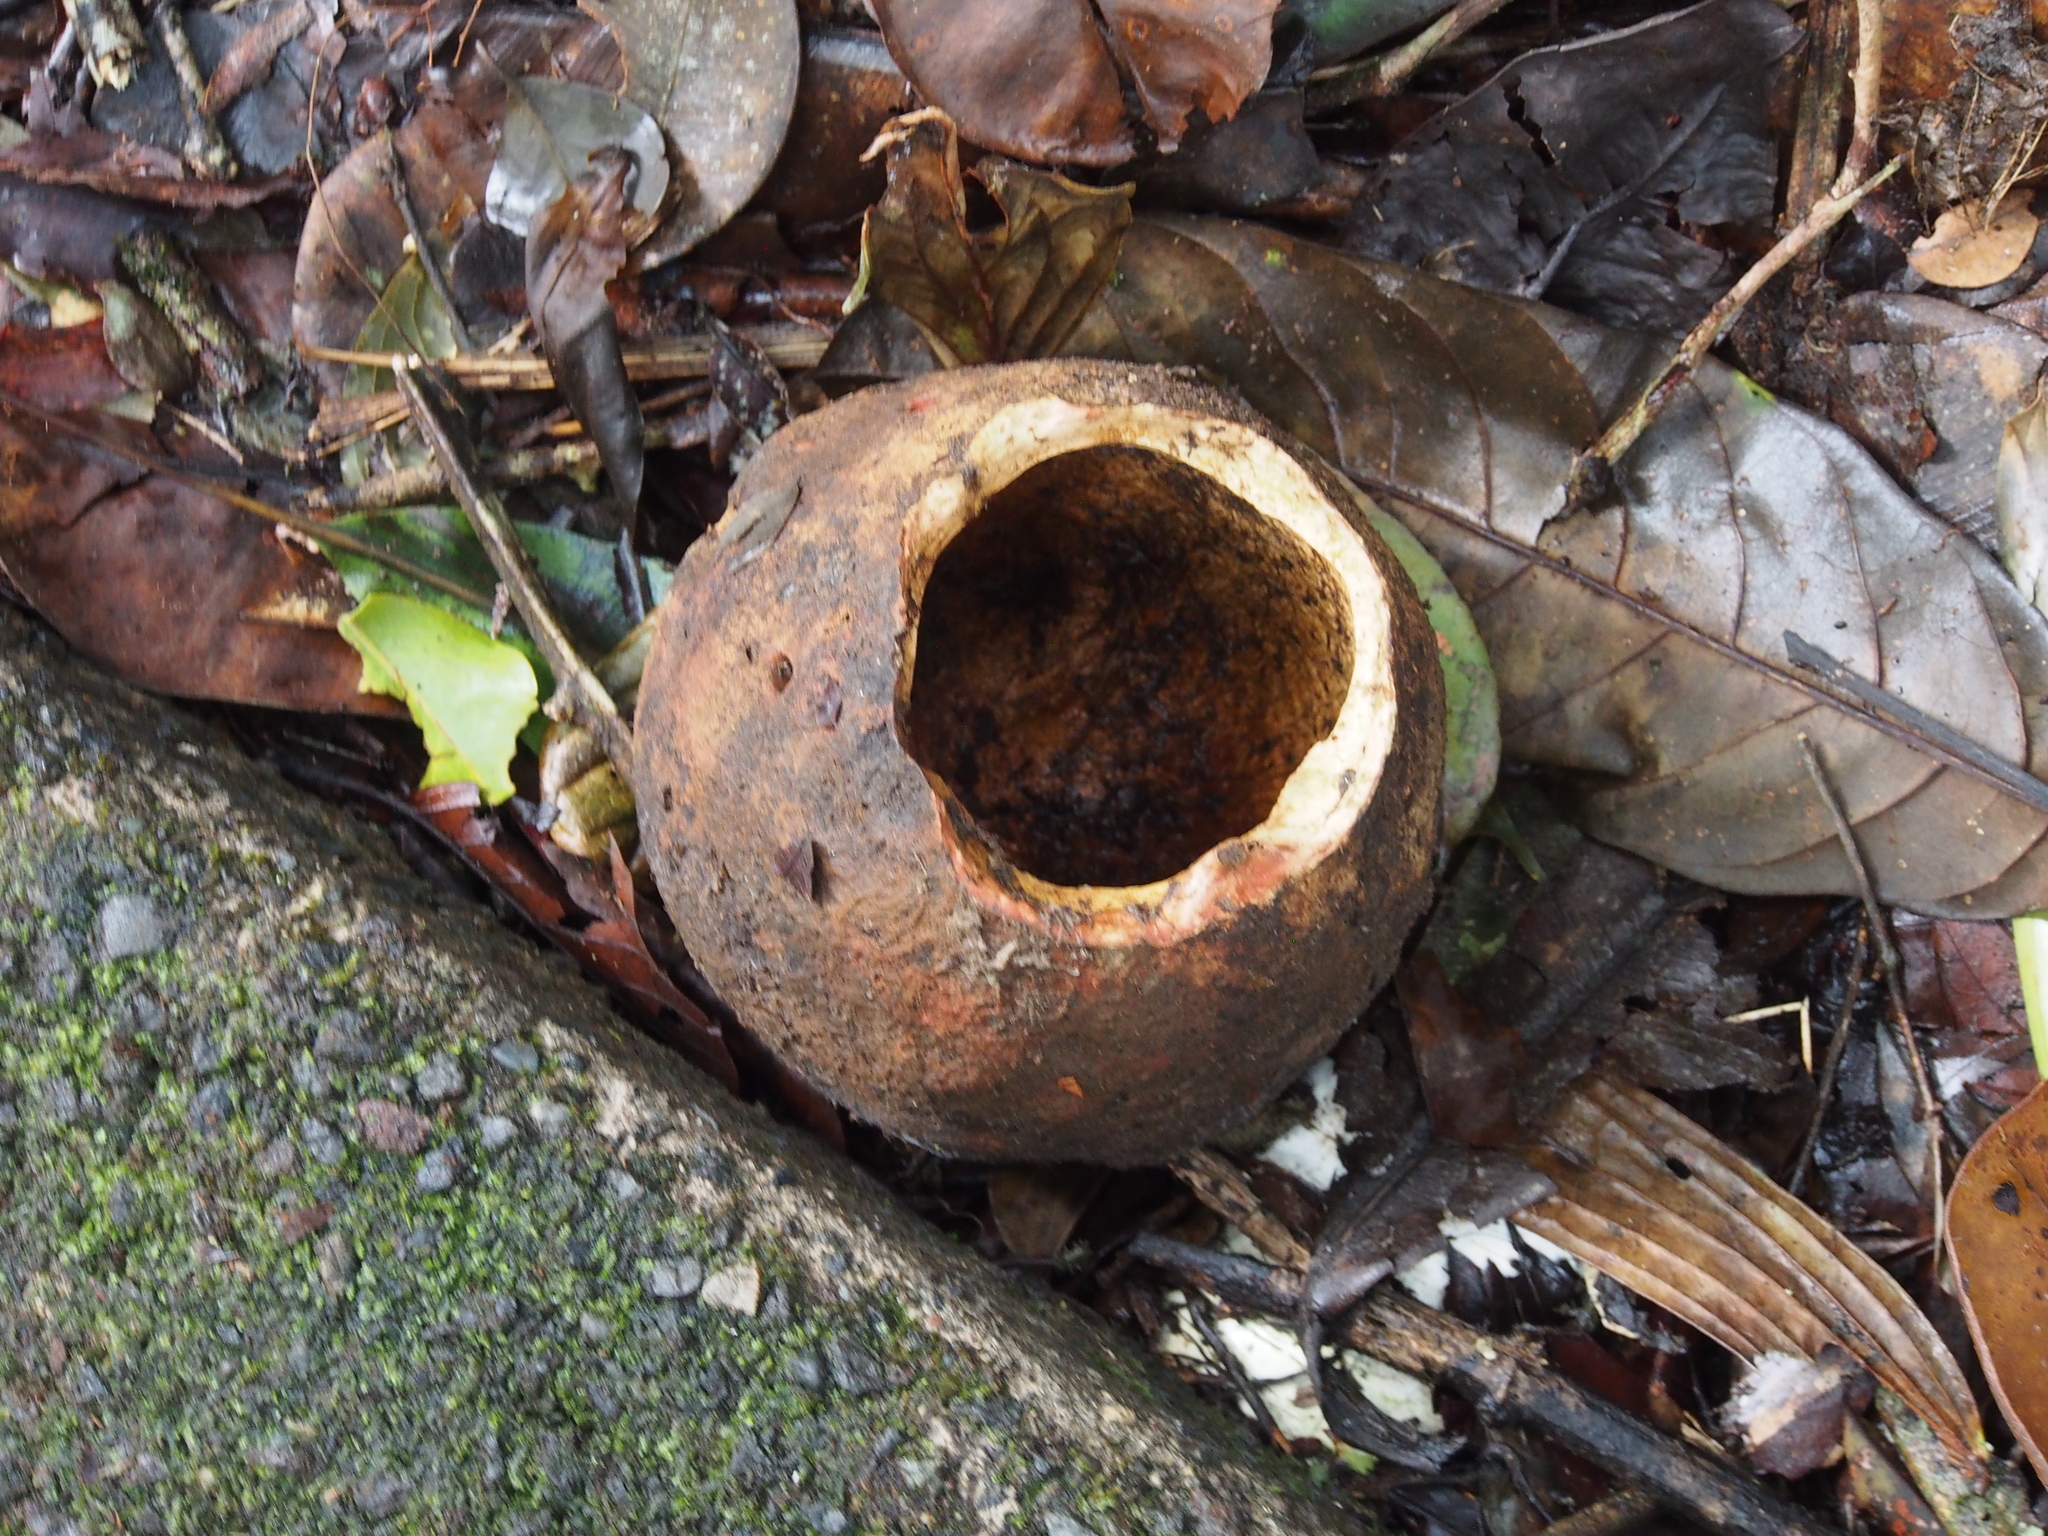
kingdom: Plantae
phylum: Tracheophyta
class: Magnoliopsida
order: Ericales
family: Lecythidaceae
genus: Lecythis
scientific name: Lecythis ampla
